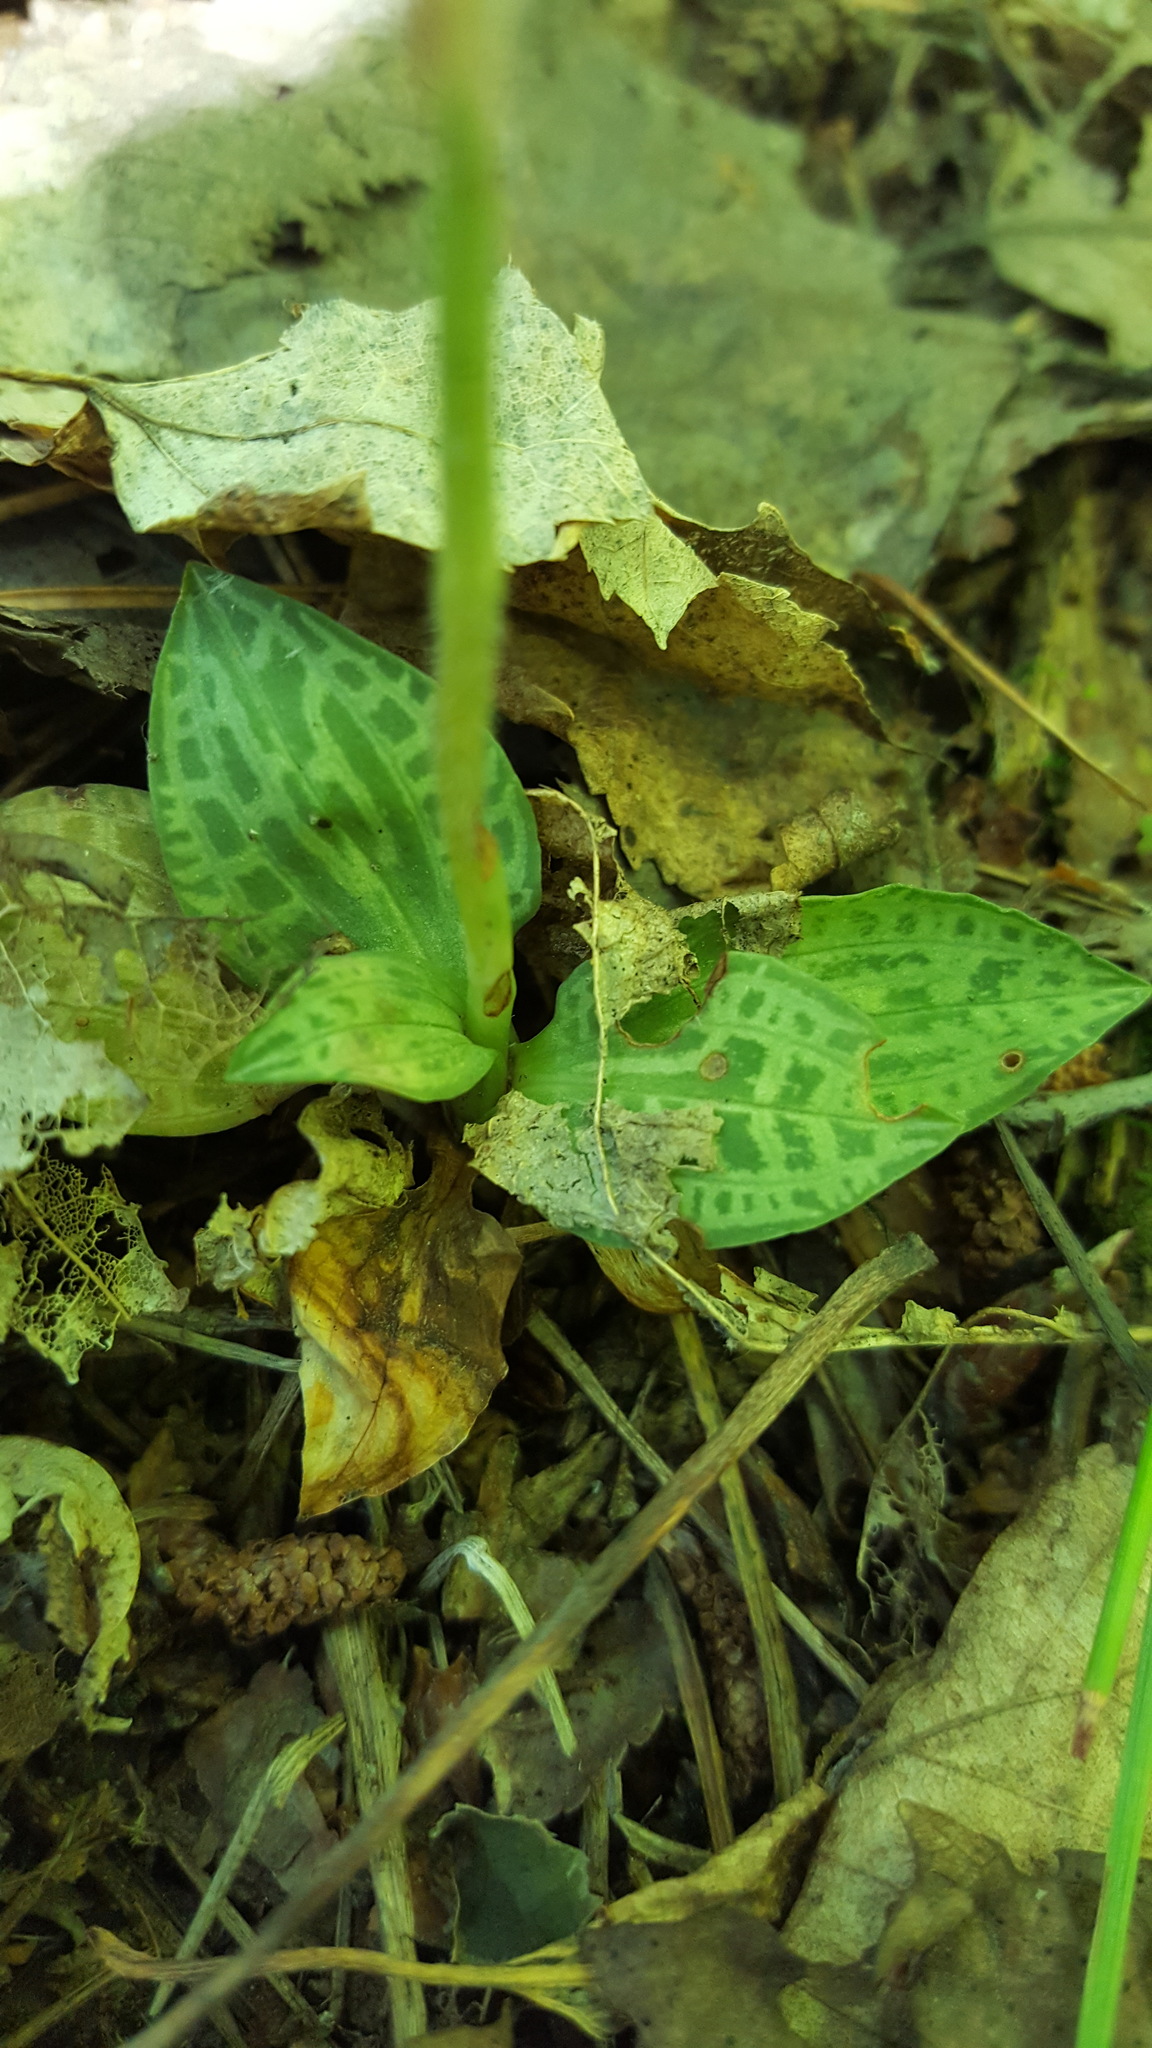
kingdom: Plantae
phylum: Tracheophyta
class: Liliopsida
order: Asparagales
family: Orchidaceae
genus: Goodyera
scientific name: Goodyera repens
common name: Creeping lady's-tresses
